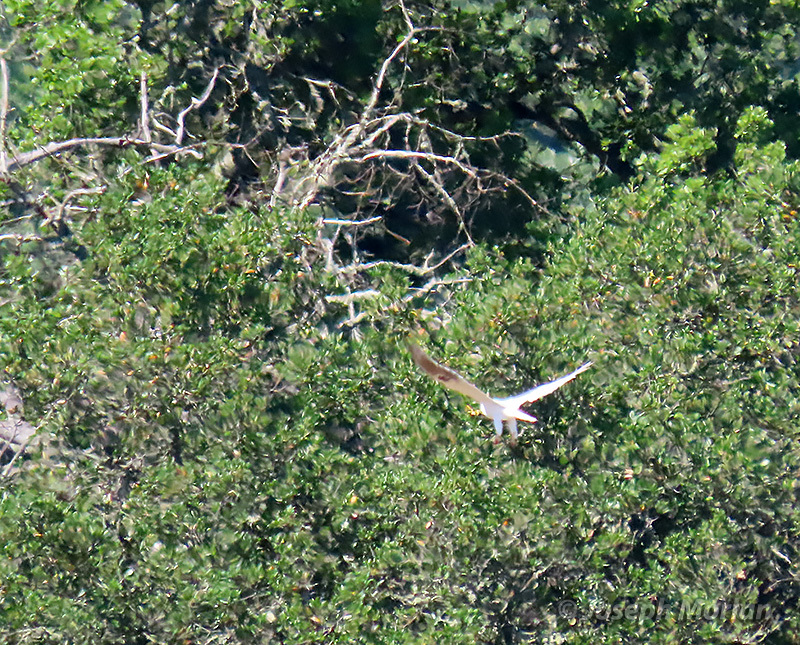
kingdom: Animalia
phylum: Chordata
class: Aves
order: Accipitriformes
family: Accipitridae
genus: Elanus
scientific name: Elanus leucurus
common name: White-tailed kite
